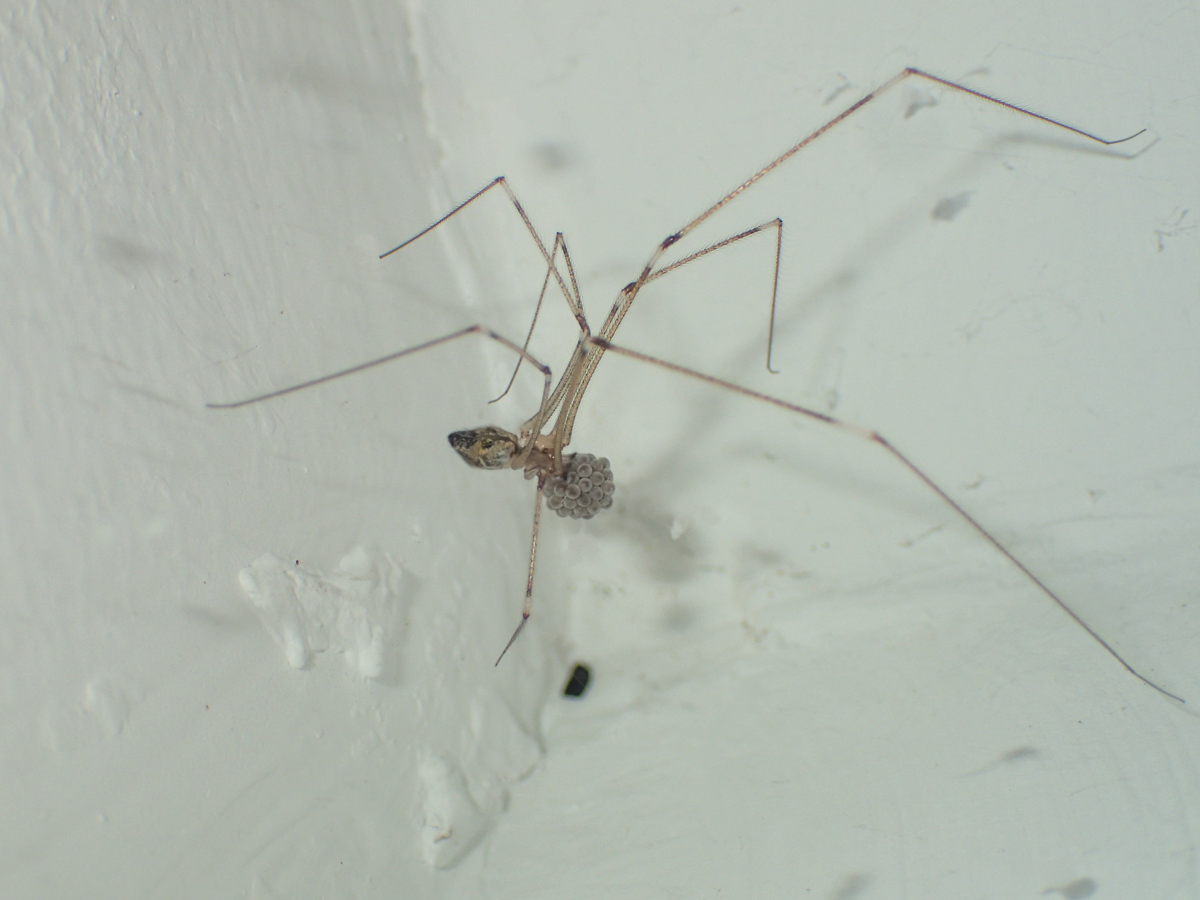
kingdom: Animalia
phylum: Arthropoda
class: Arachnida
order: Araneae
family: Pholcidae
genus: Crossopriza
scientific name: Crossopriza lyoni
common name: Cellar spiders
